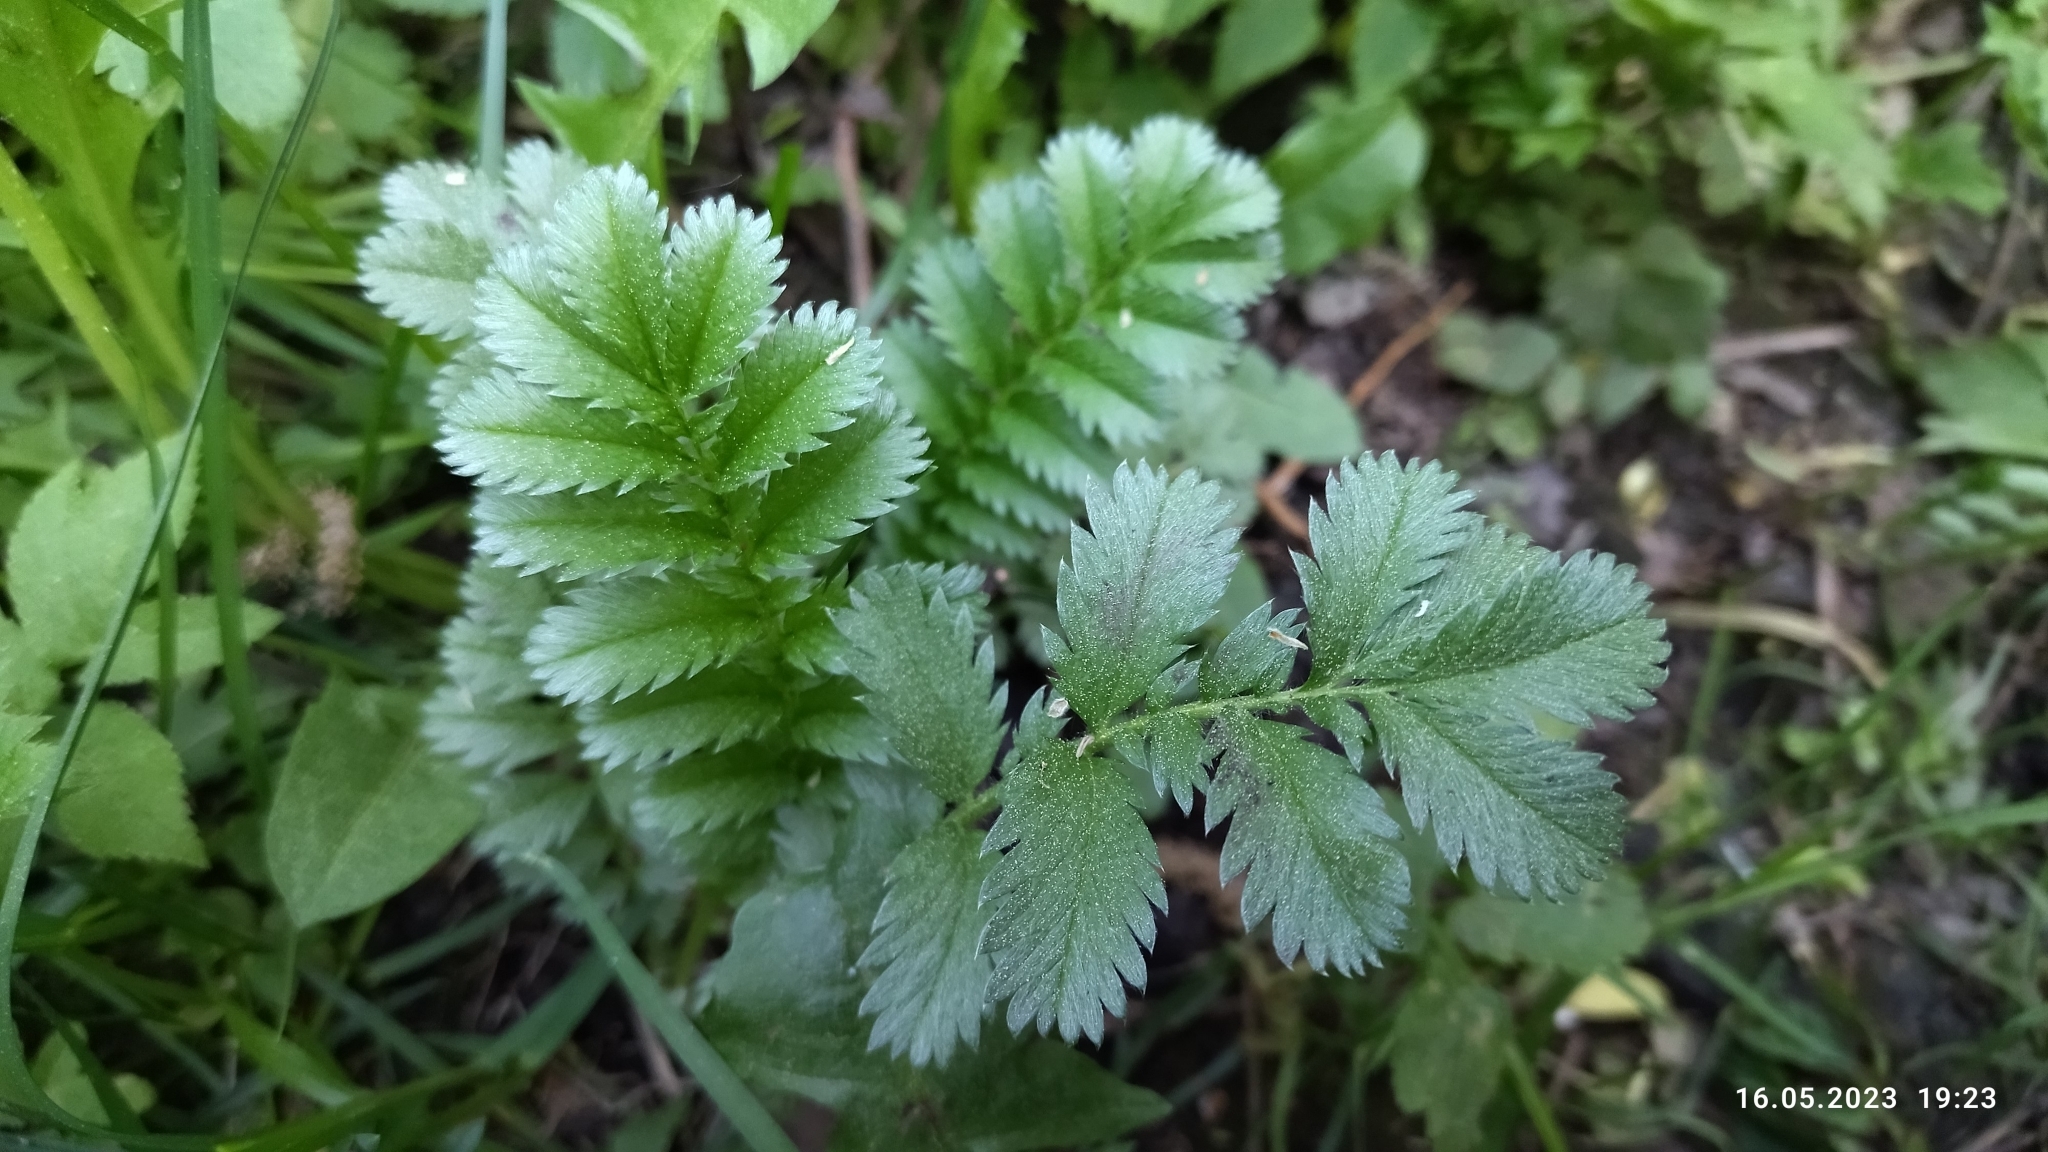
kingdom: Plantae
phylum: Tracheophyta
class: Magnoliopsida
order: Rosales
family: Rosaceae
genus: Argentina
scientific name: Argentina anserina
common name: Common silverweed
